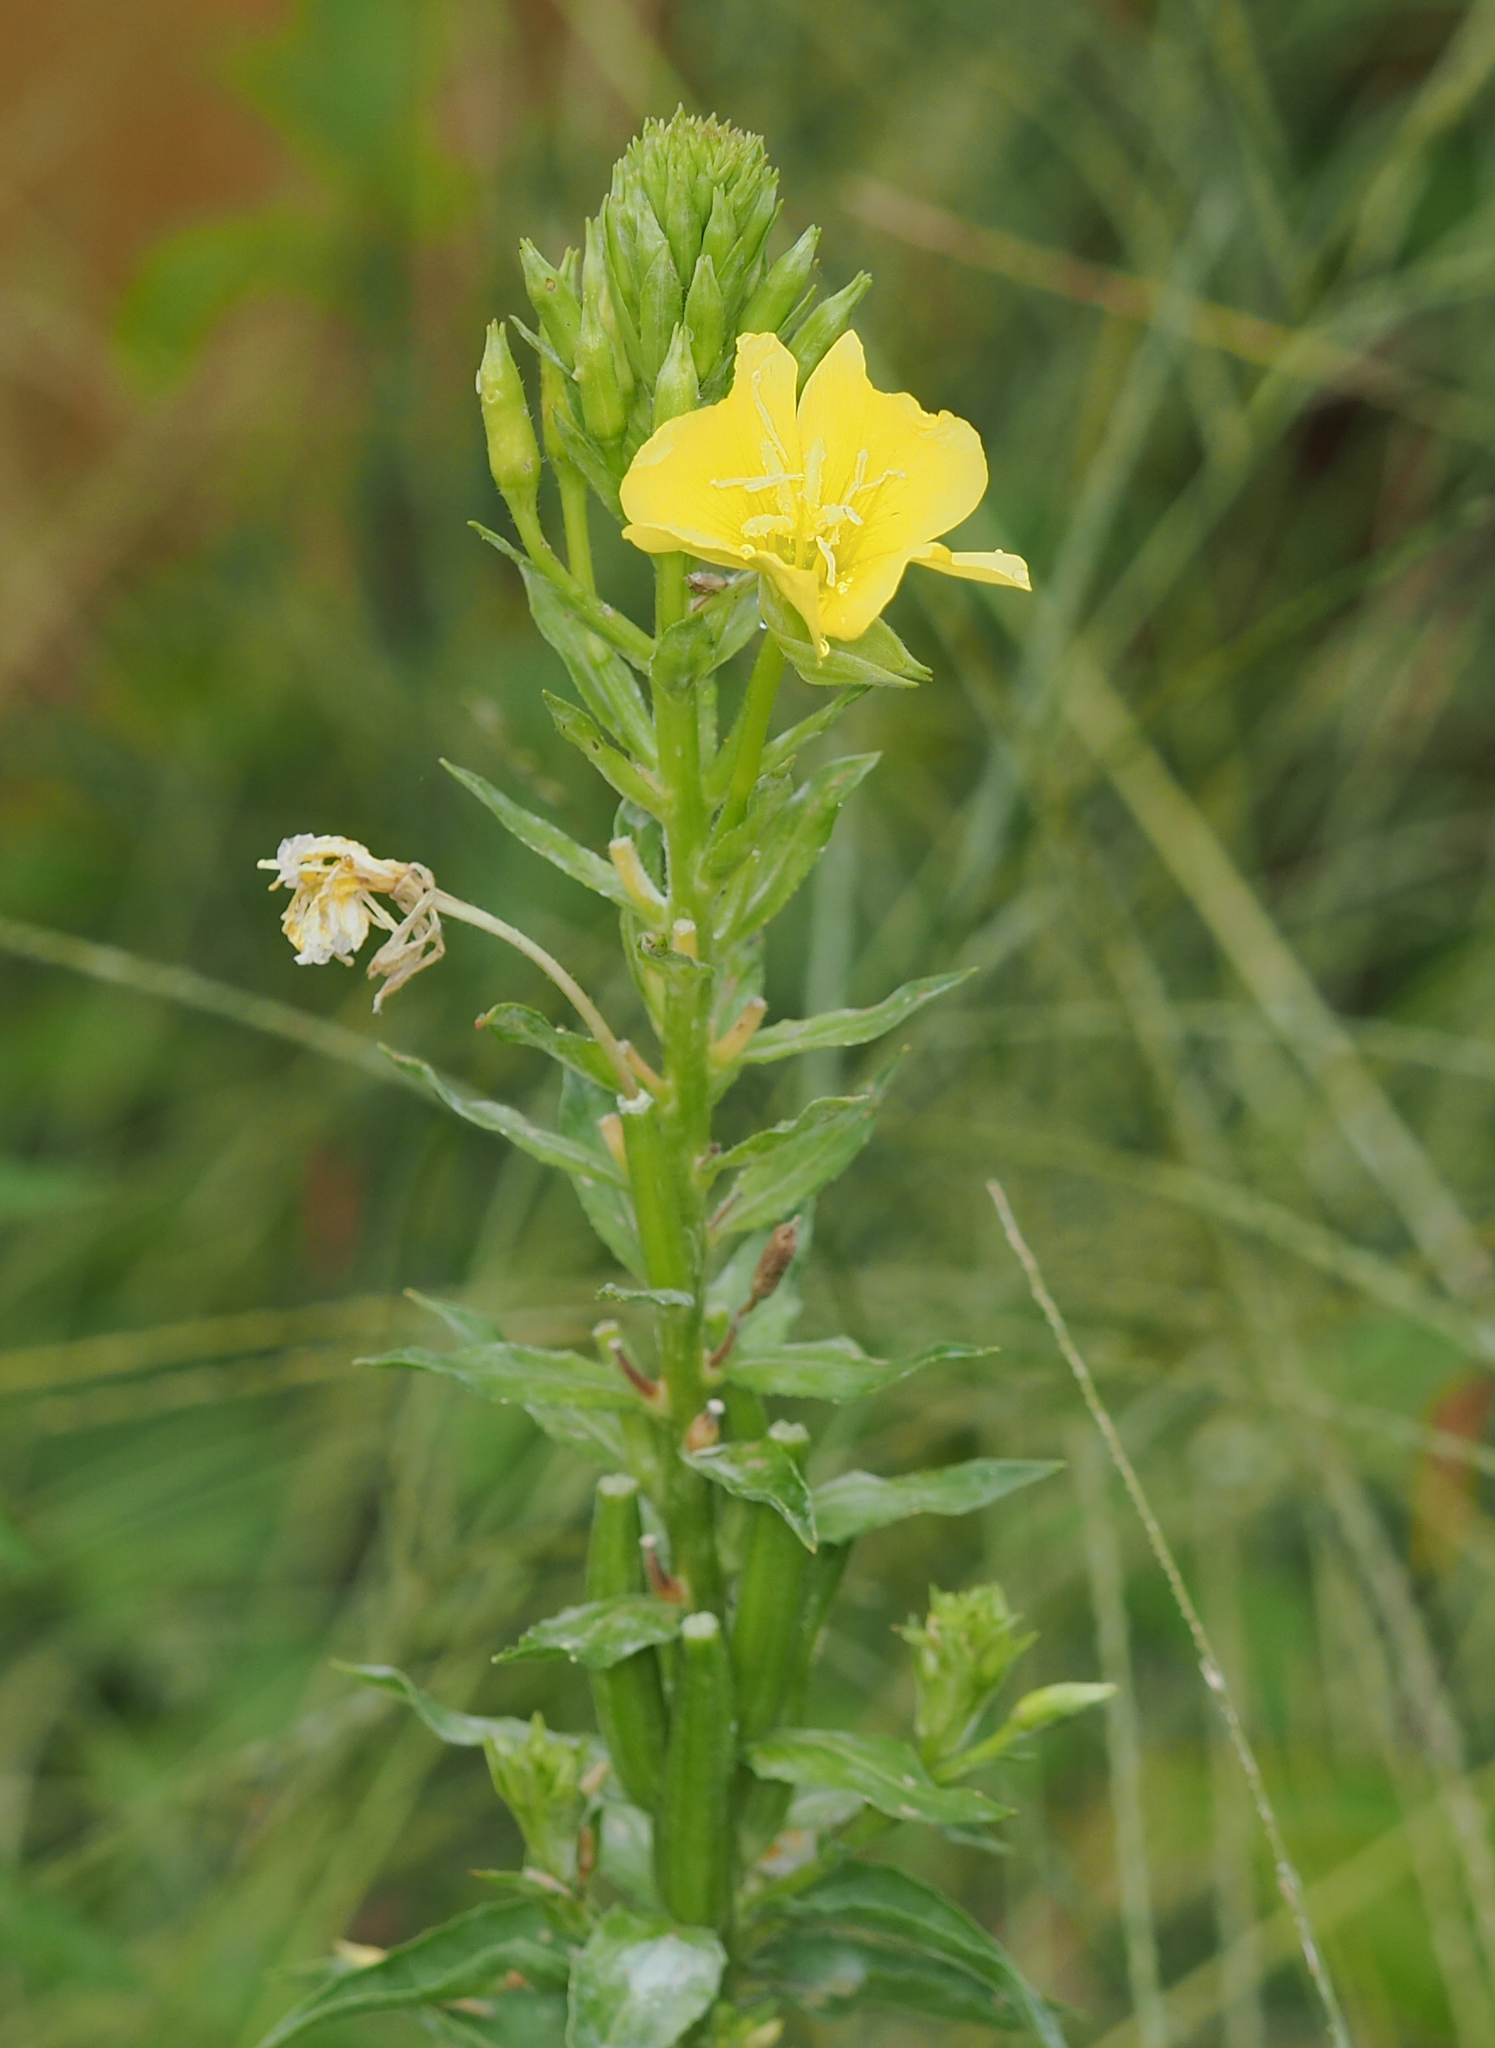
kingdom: Plantae
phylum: Tracheophyta
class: Magnoliopsida
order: Myrtales
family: Onagraceae
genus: Oenothera
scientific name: Oenothera biennis
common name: Common evening-primrose
